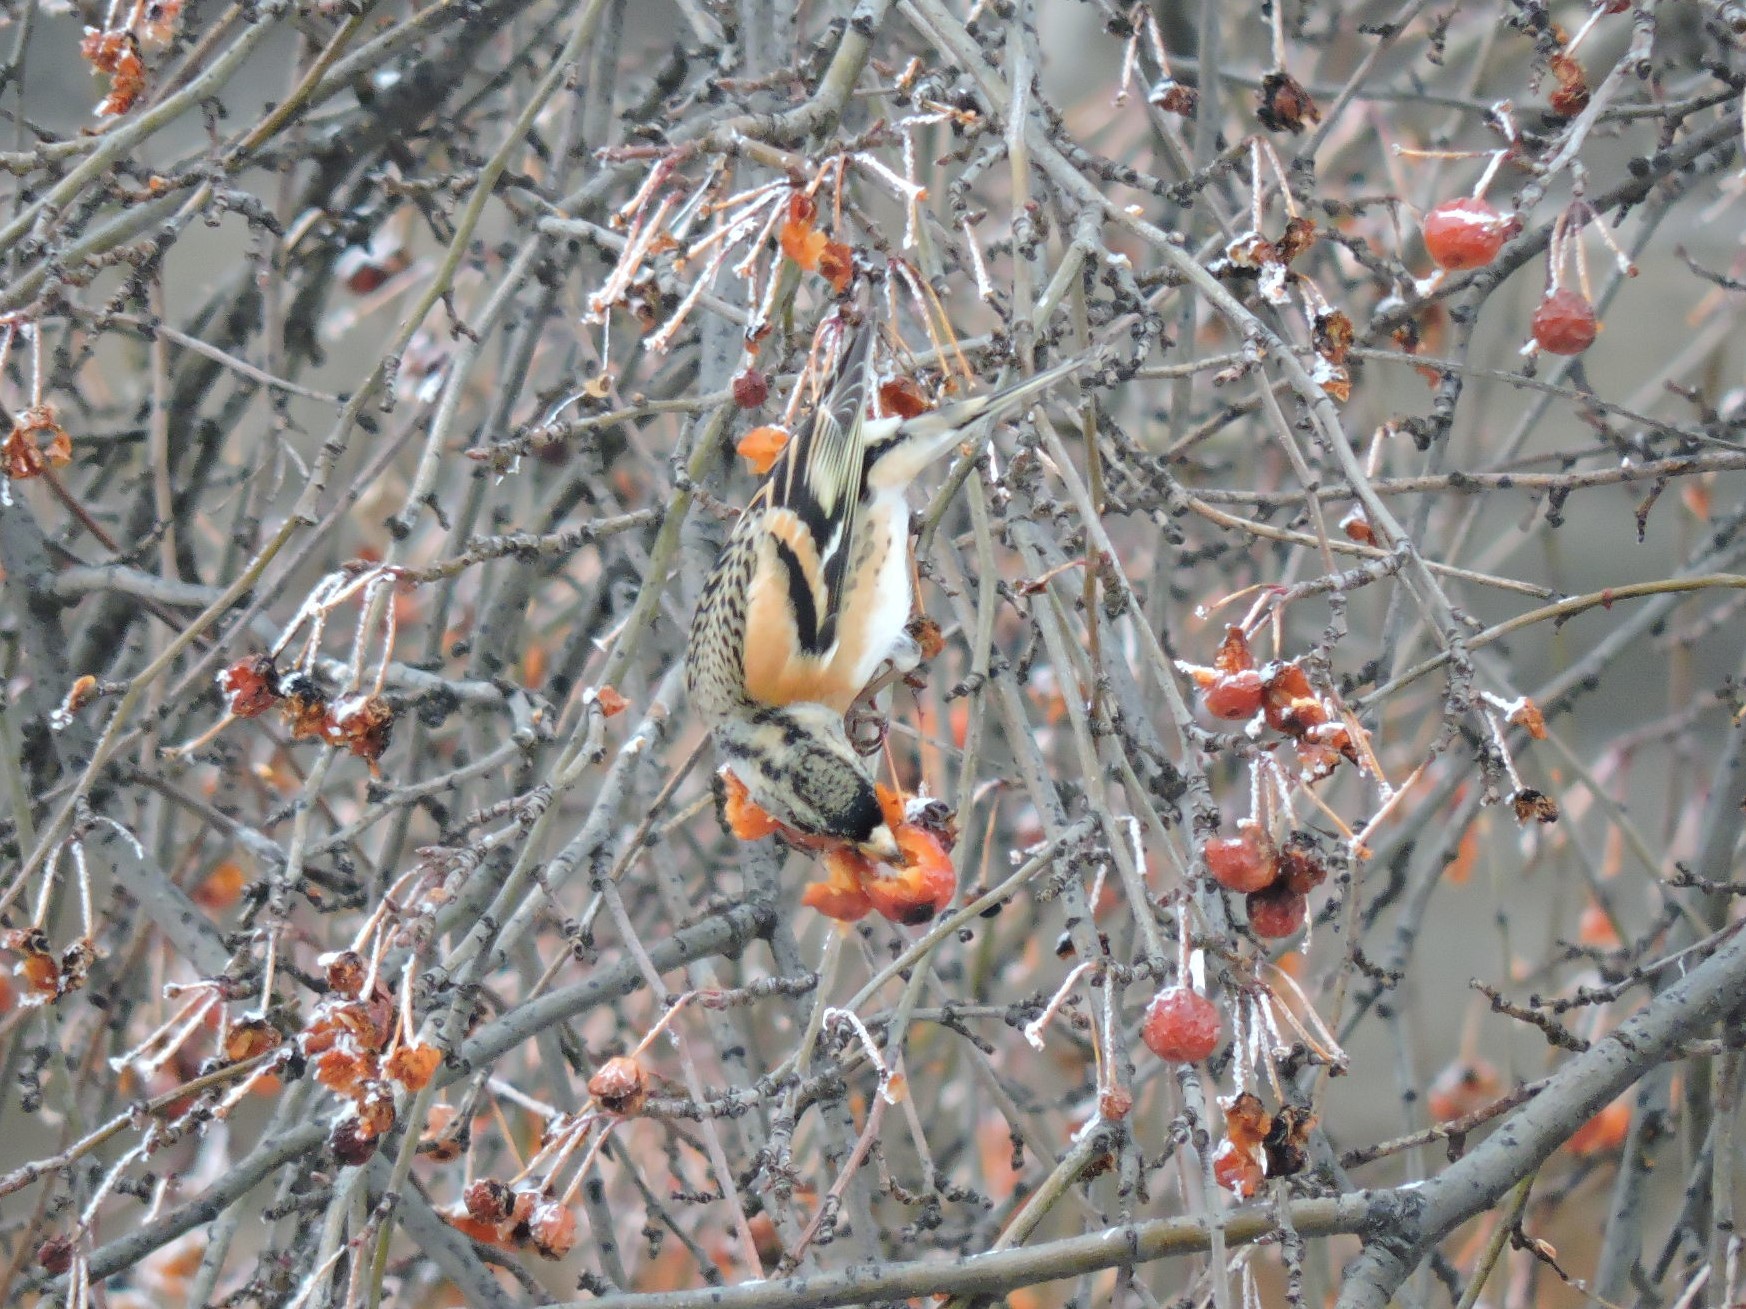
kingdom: Animalia
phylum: Chordata
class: Aves
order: Passeriformes
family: Fringillidae
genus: Fringilla
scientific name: Fringilla montifringilla
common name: Brambling
